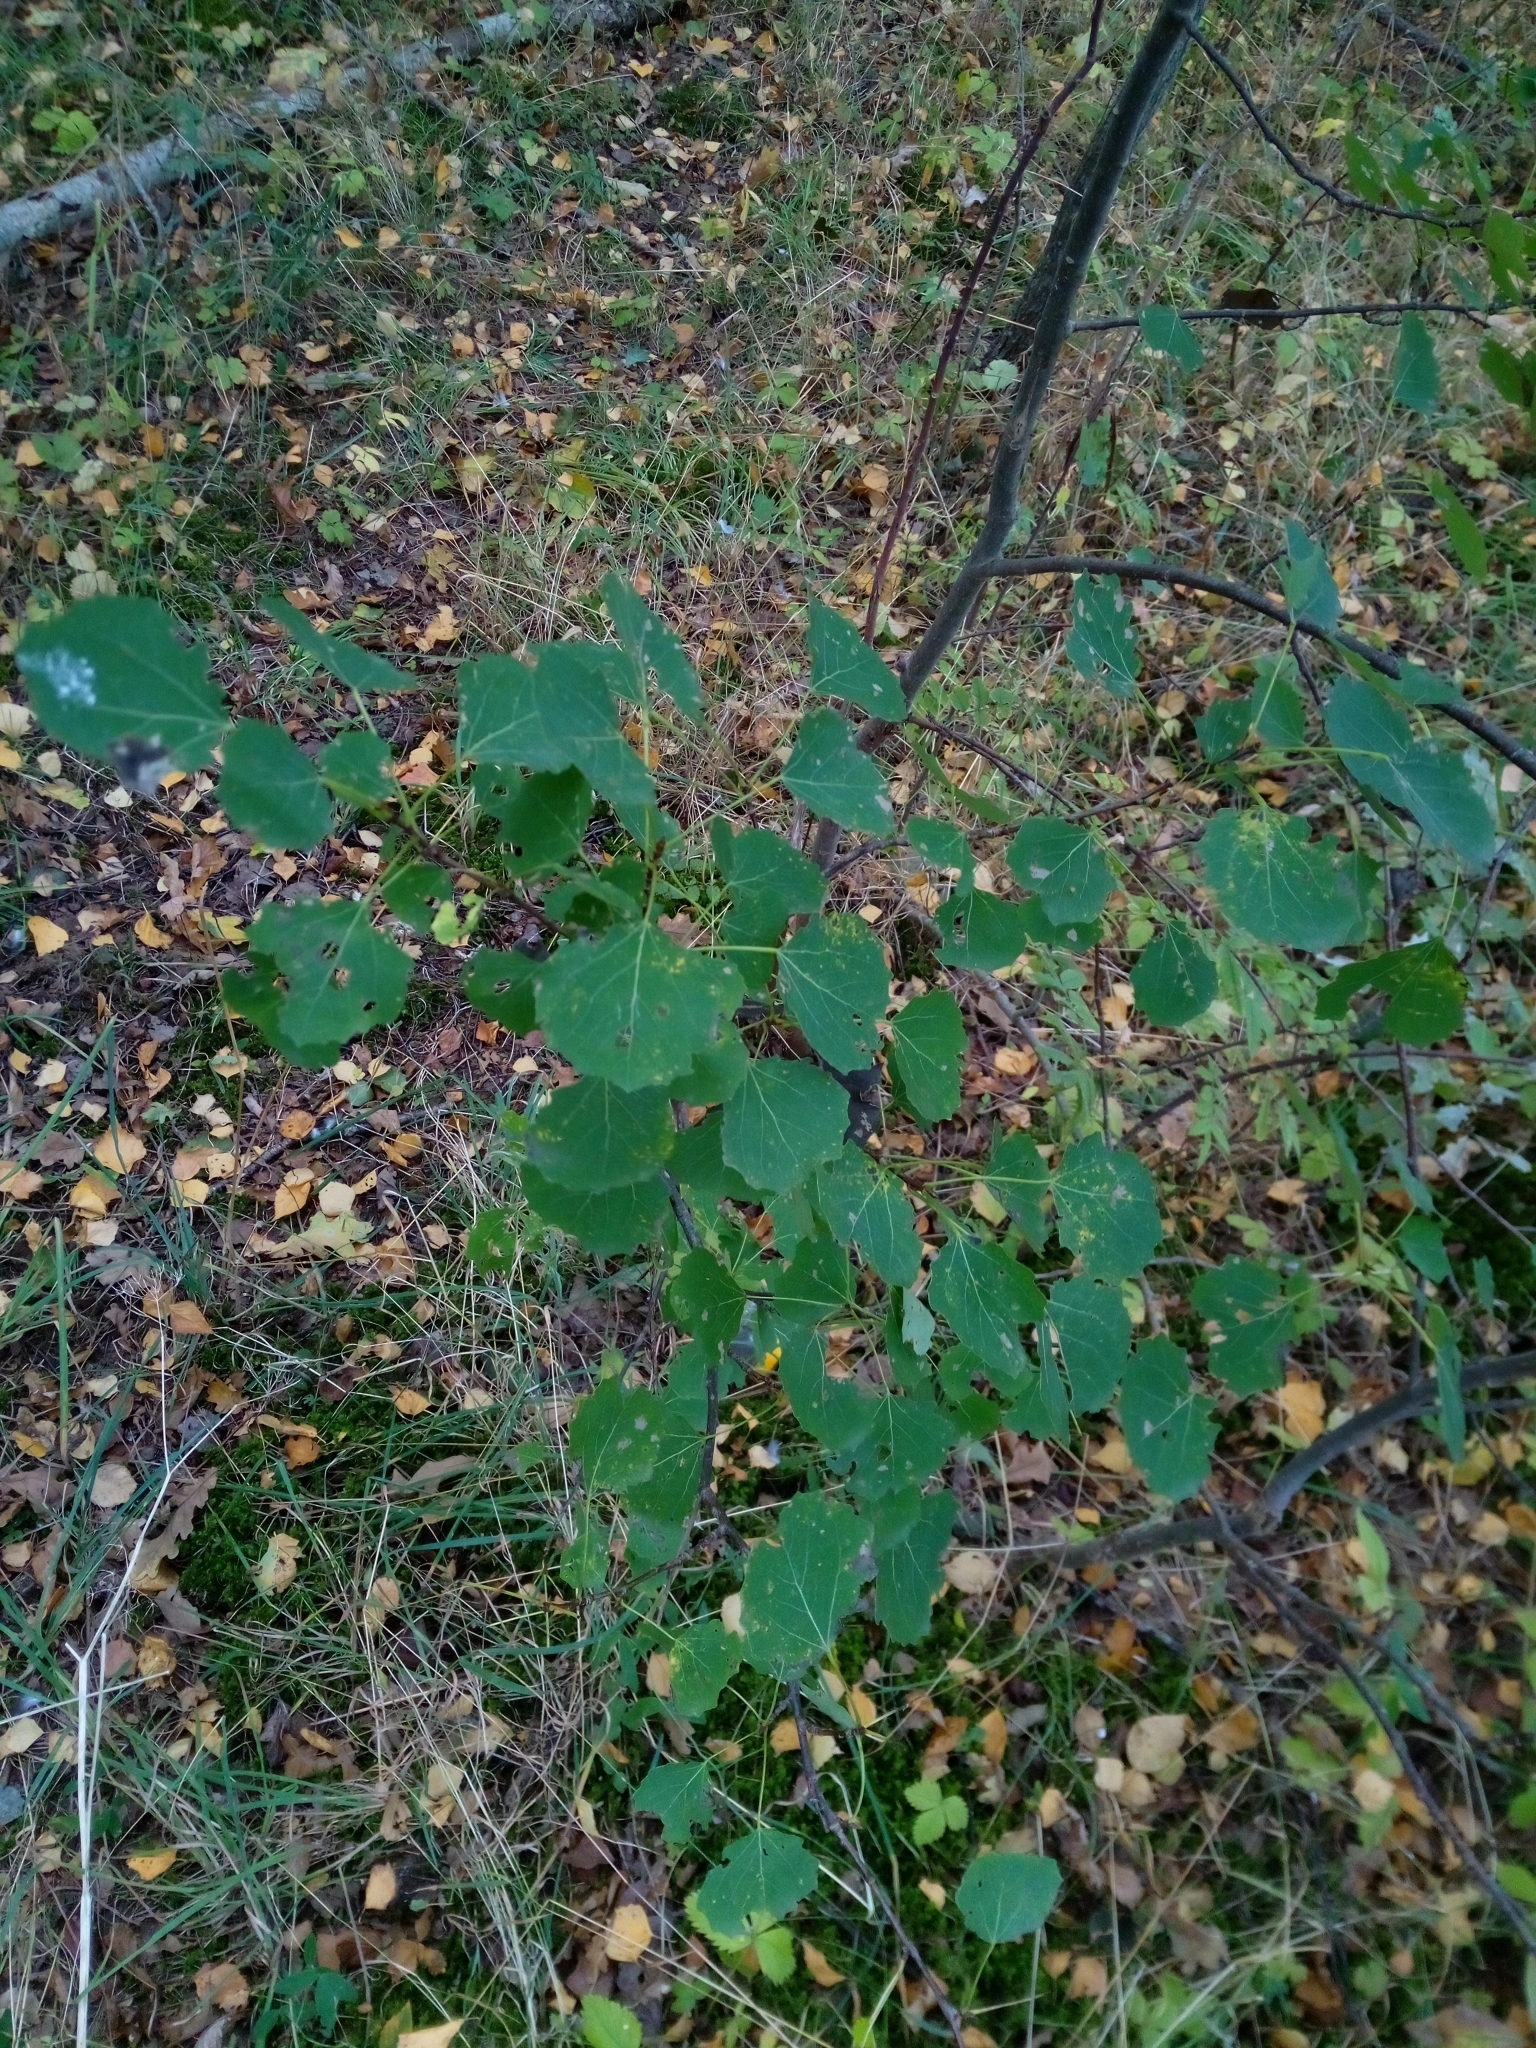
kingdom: Plantae
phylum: Tracheophyta
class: Magnoliopsida
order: Malpighiales
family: Salicaceae
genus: Populus
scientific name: Populus tremula
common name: European aspen
